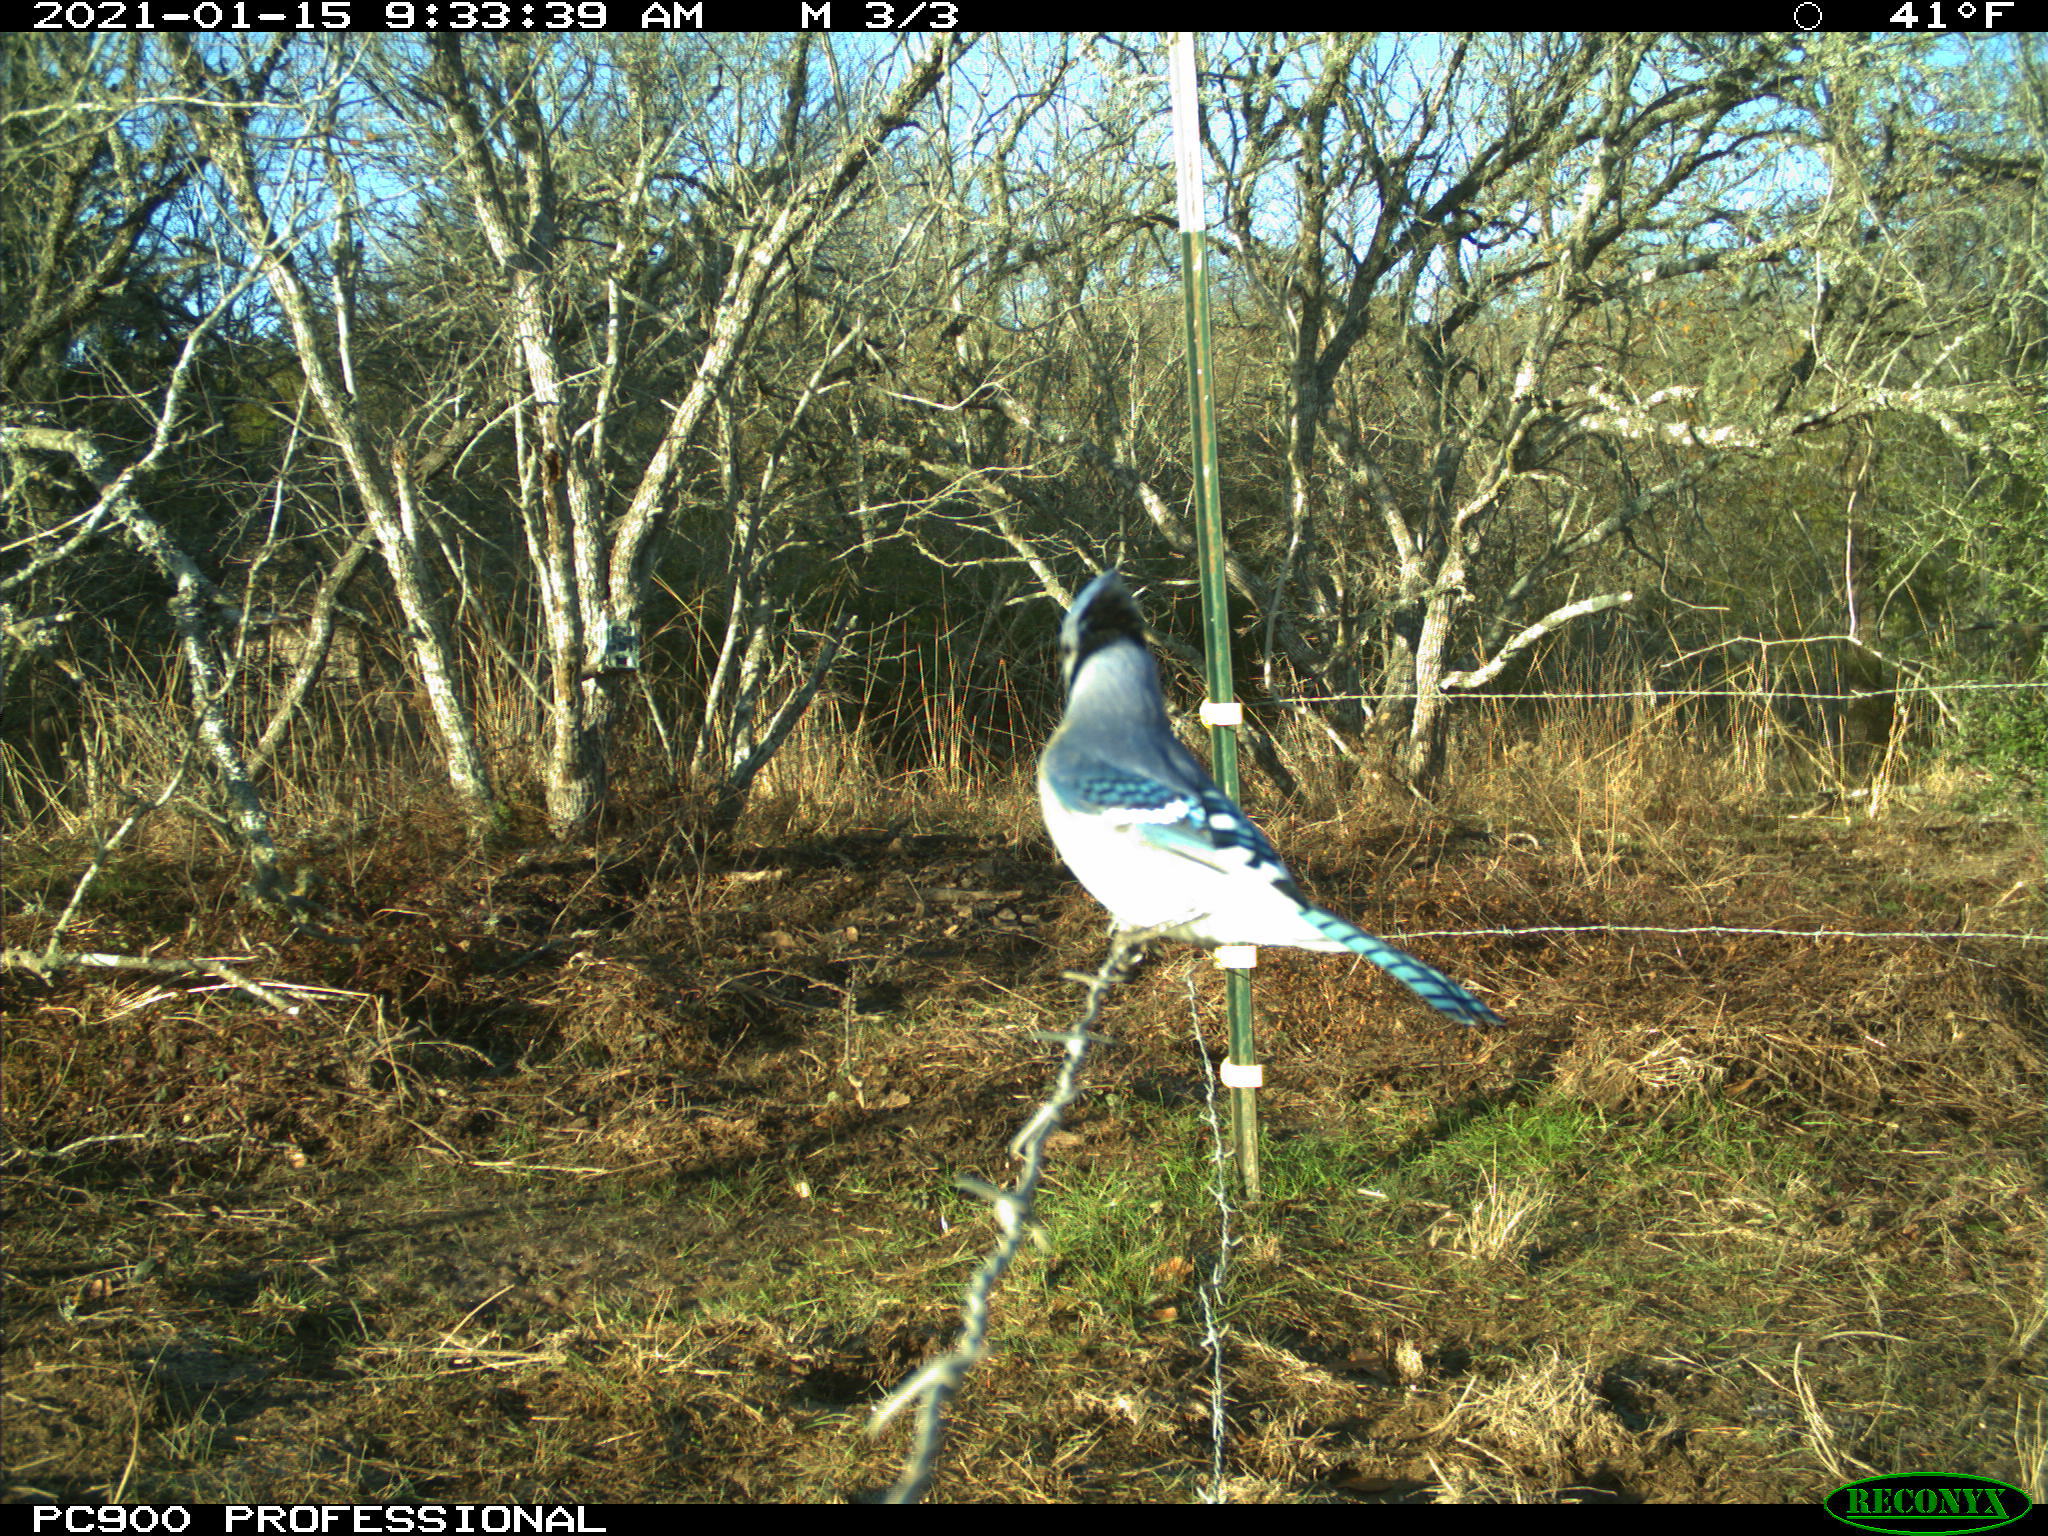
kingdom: Animalia
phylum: Chordata
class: Aves
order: Passeriformes
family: Corvidae
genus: Cyanocitta
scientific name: Cyanocitta cristata
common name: Blue jay
